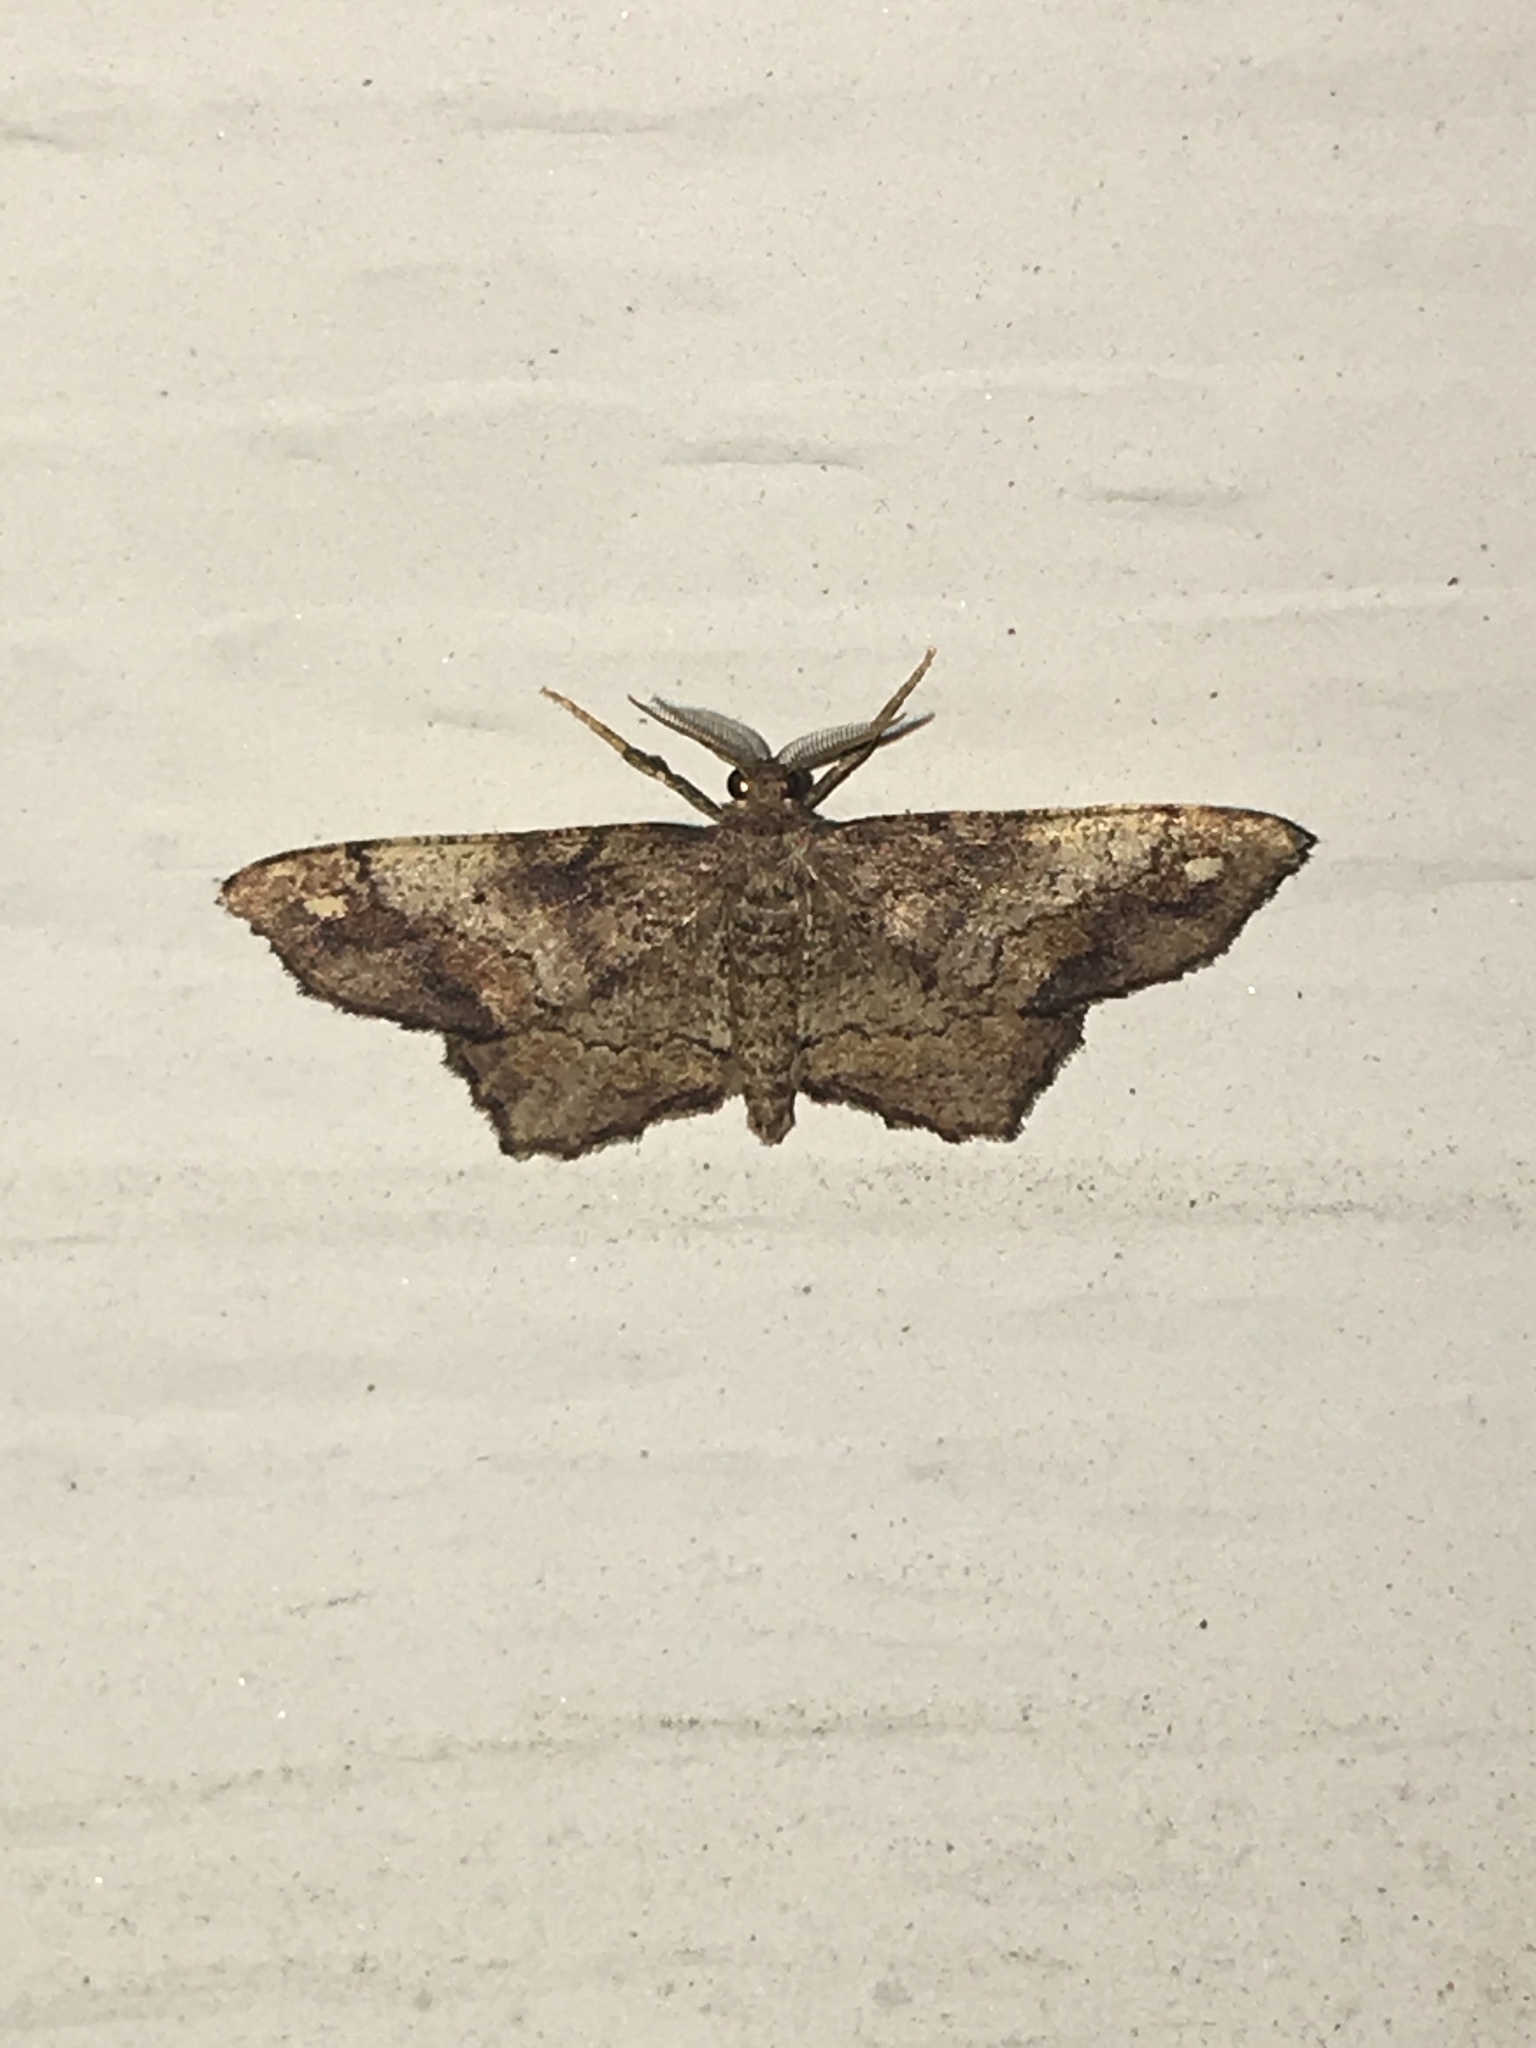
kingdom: Animalia
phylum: Arthropoda
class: Insecta
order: Lepidoptera
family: Geometridae
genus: Hypagyrtis
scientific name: Hypagyrtis unipunctata
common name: One-spotted variant
